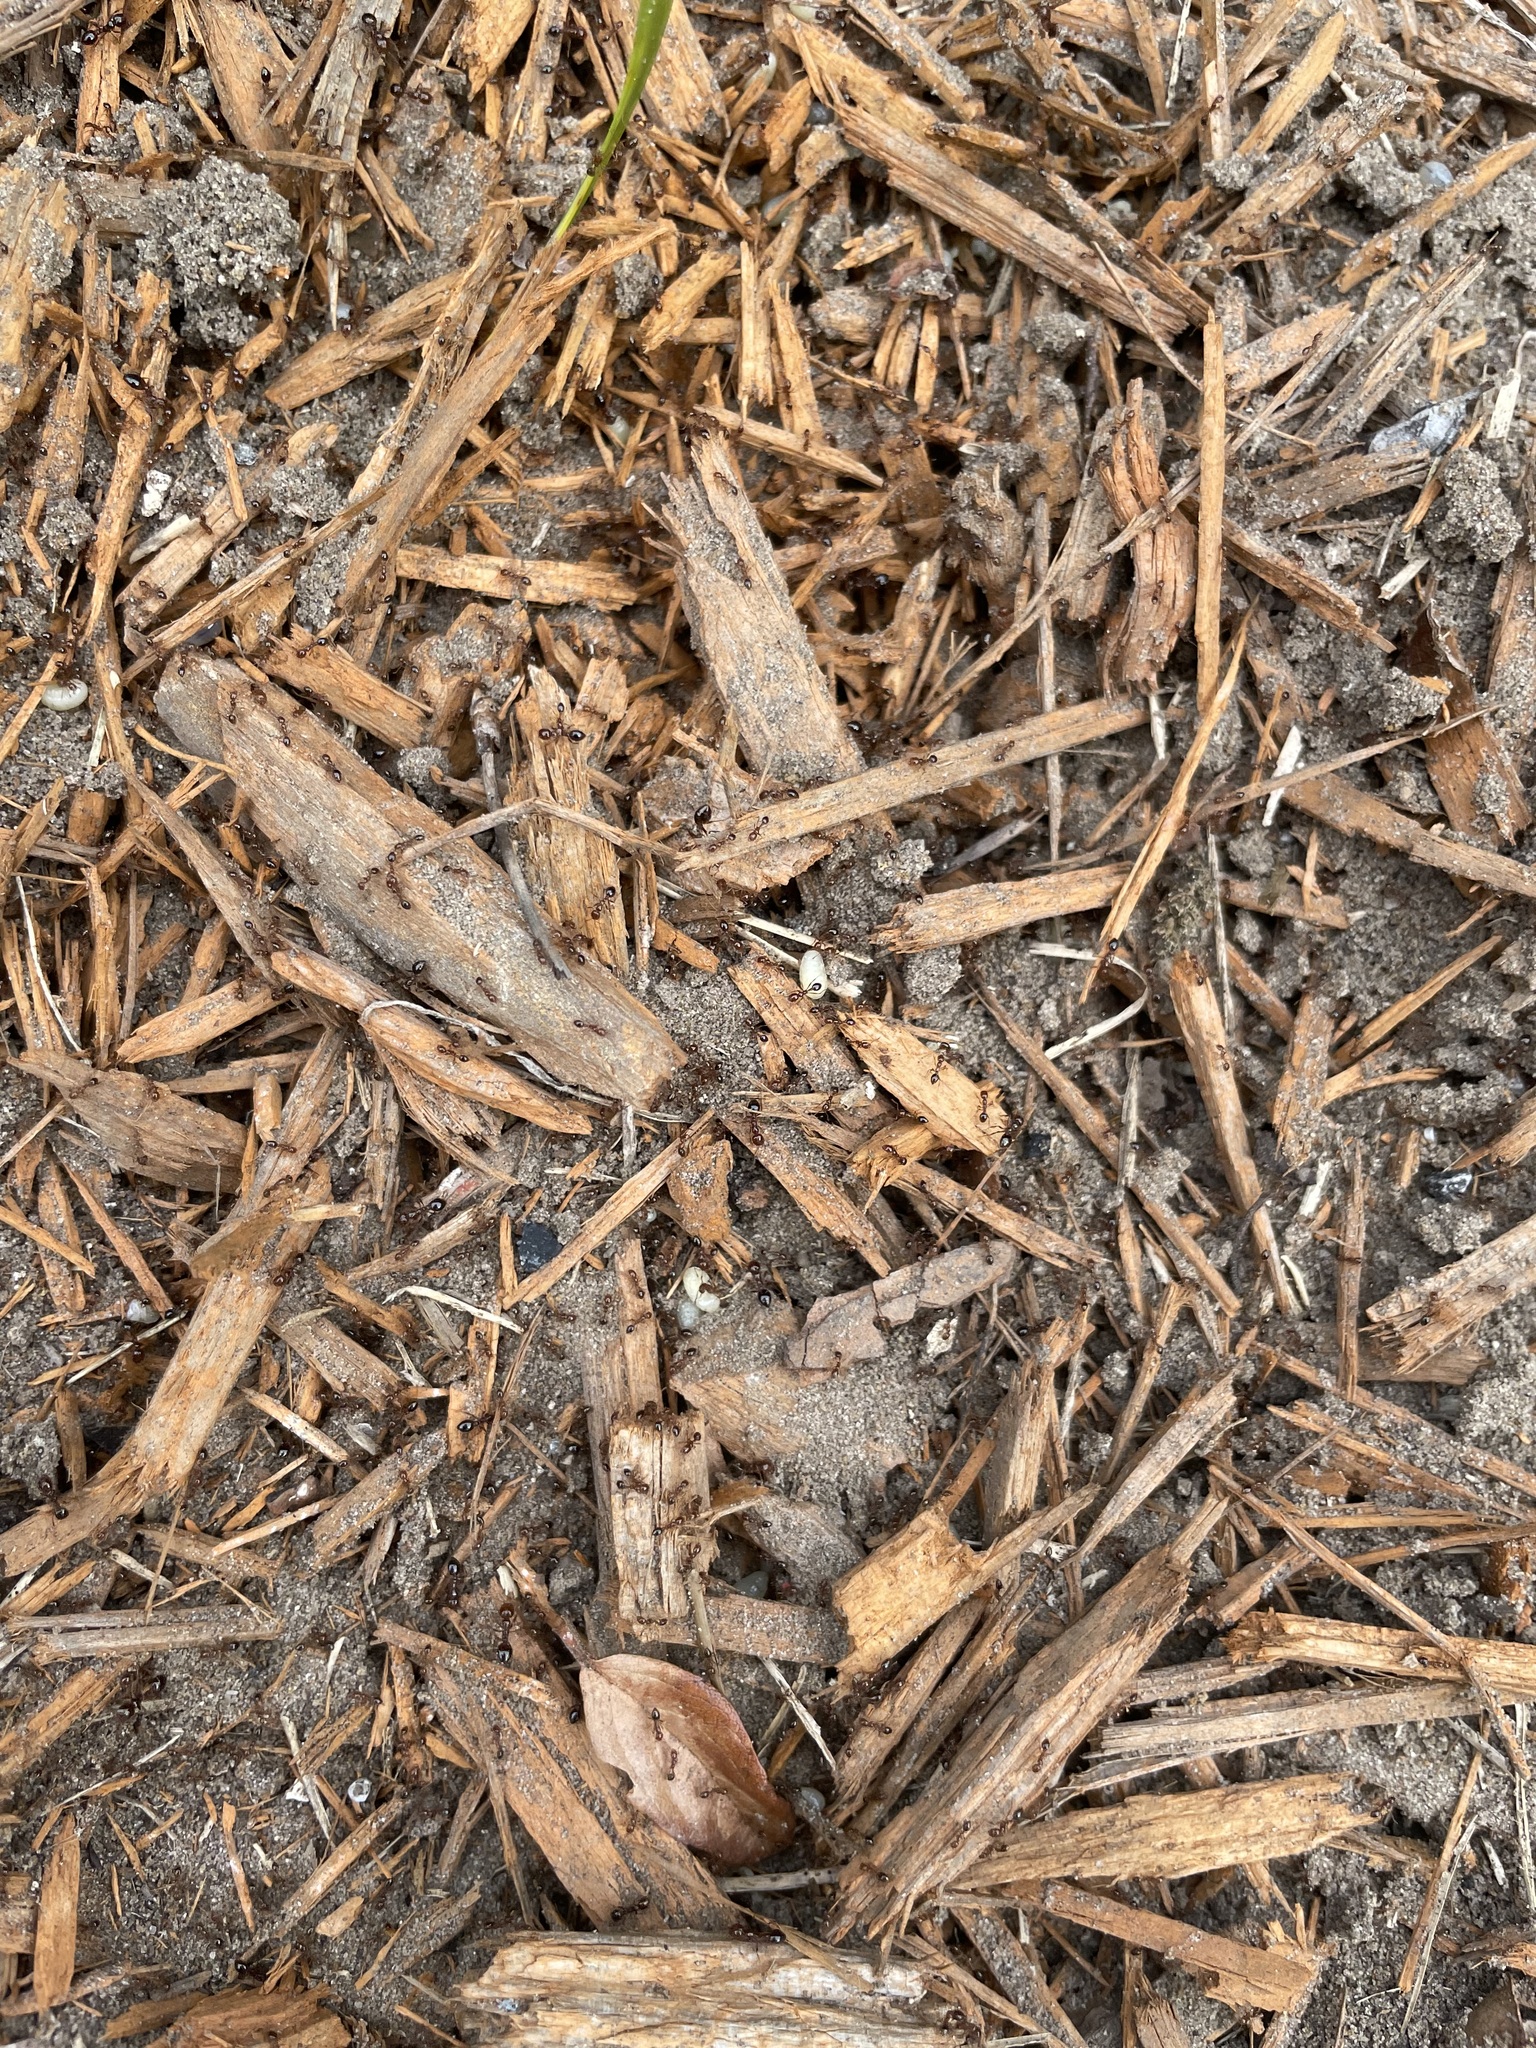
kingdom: Animalia
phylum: Arthropoda
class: Insecta
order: Hymenoptera
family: Formicidae
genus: Solenopsis
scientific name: Solenopsis invicta
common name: Red imported fire ant
